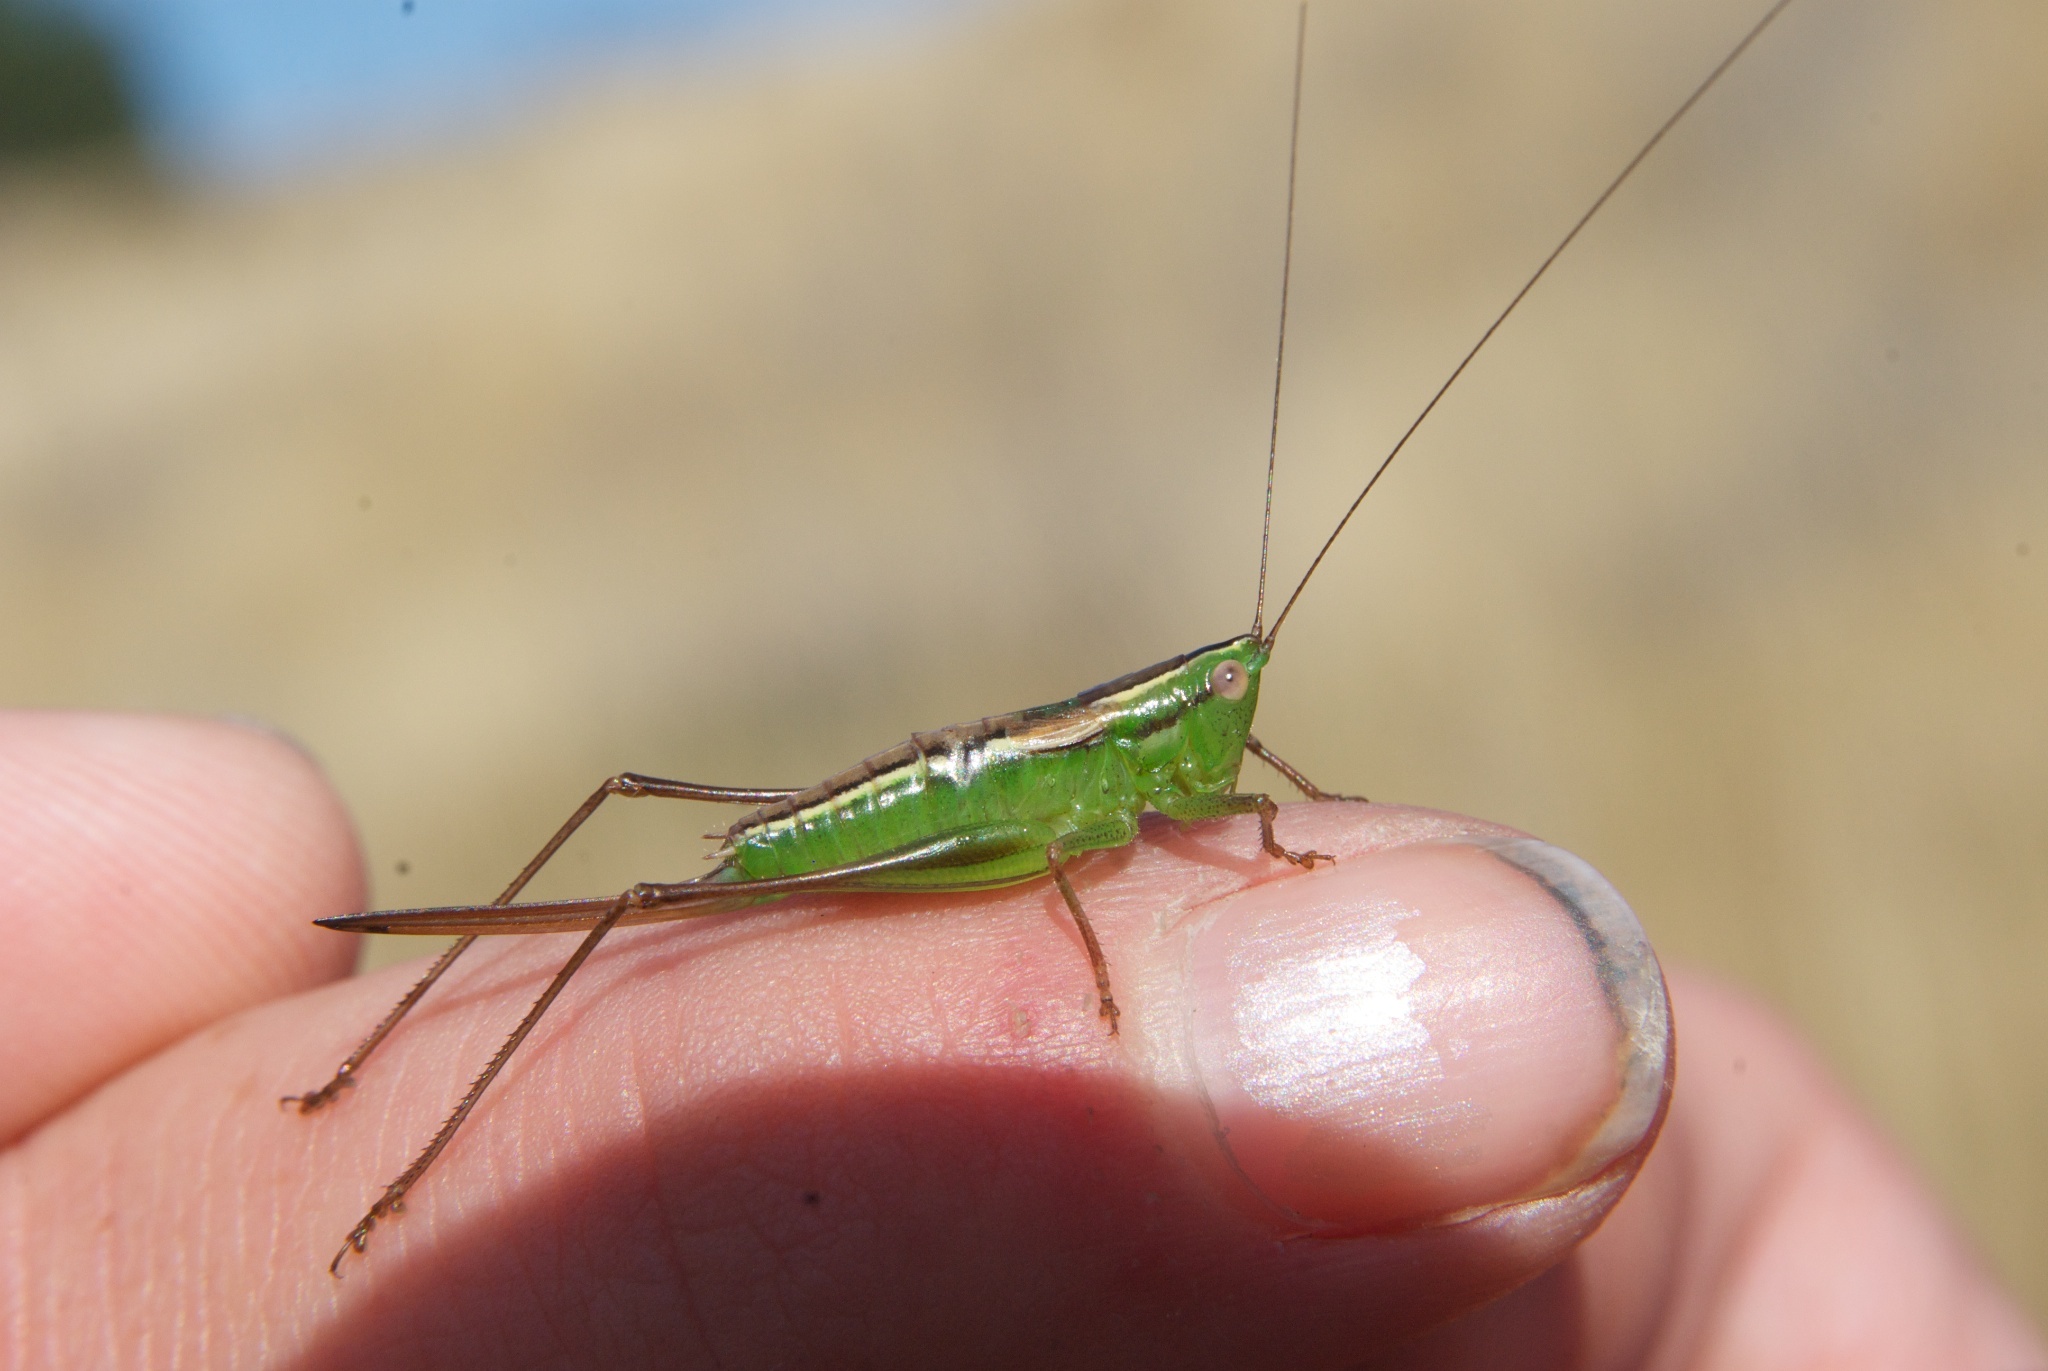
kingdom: Animalia
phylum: Arthropoda
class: Insecta
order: Orthoptera
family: Tettigoniidae
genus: Conocephalus
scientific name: Conocephalus bilineatus
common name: Small meadow katydid
